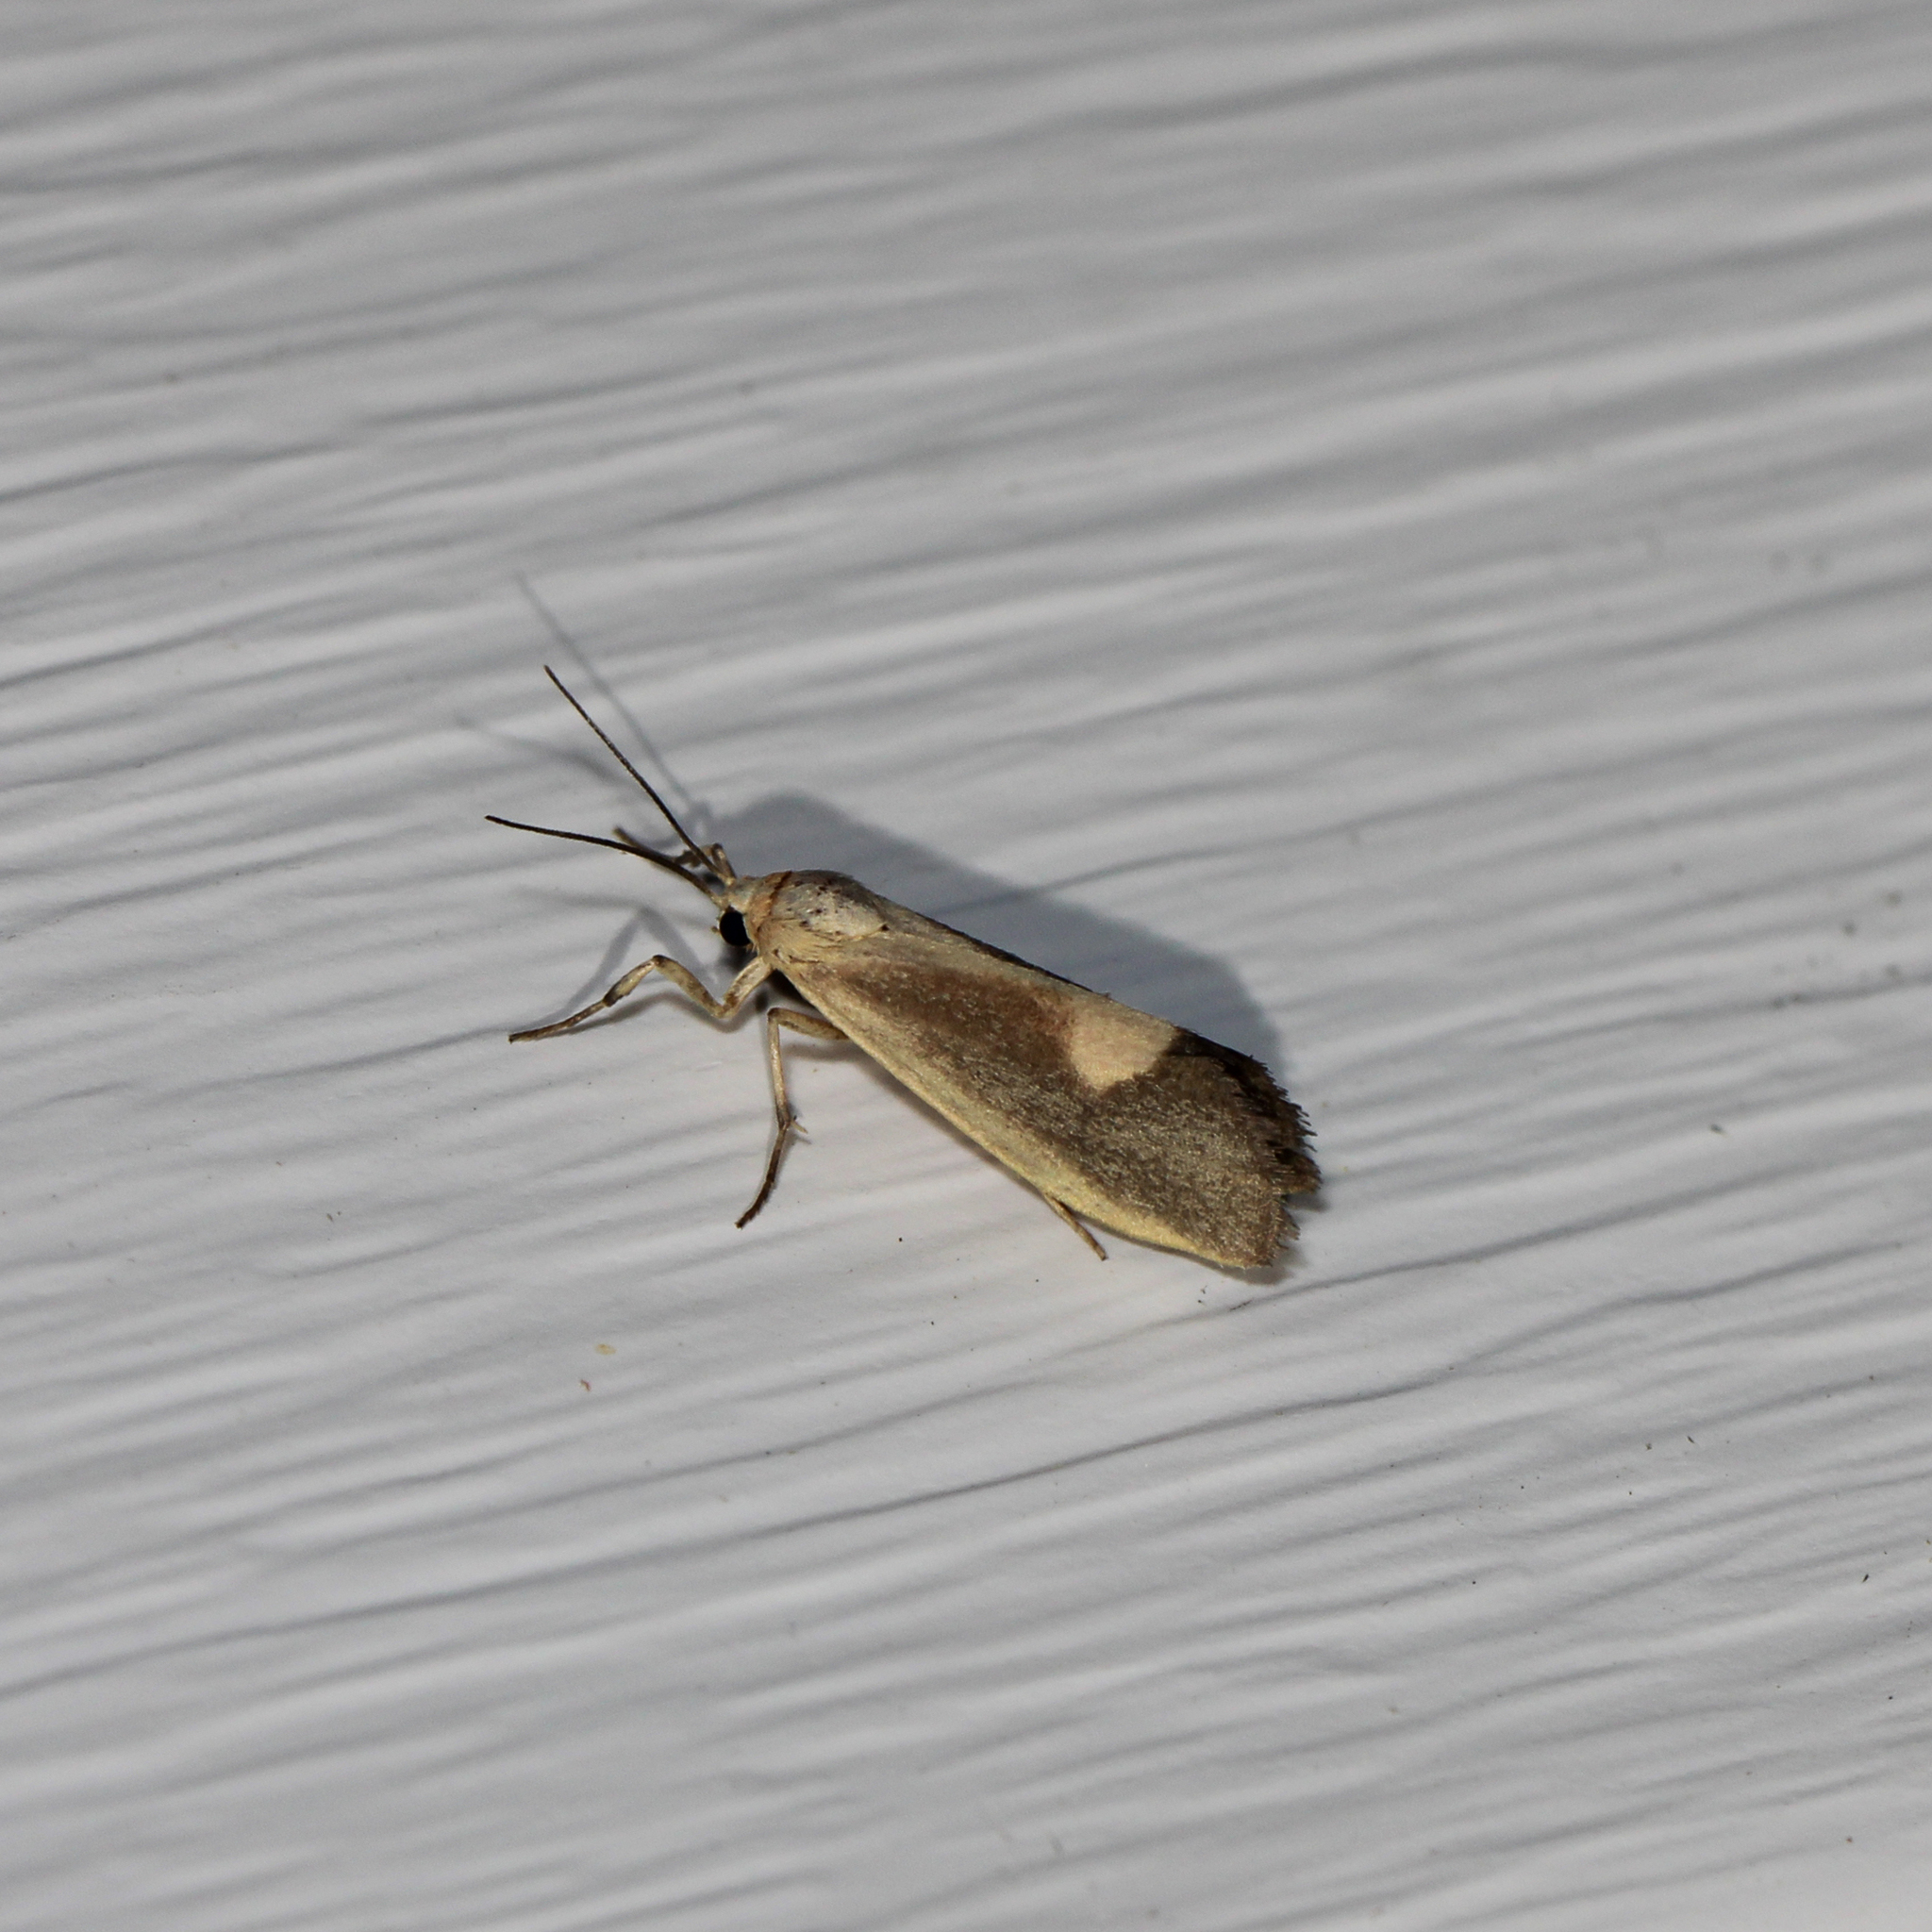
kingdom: Animalia
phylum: Arthropoda
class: Insecta
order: Lepidoptera
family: Erebidae
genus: Cisthene
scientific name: Cisthene plumbea
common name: Lead colored lichen moth
